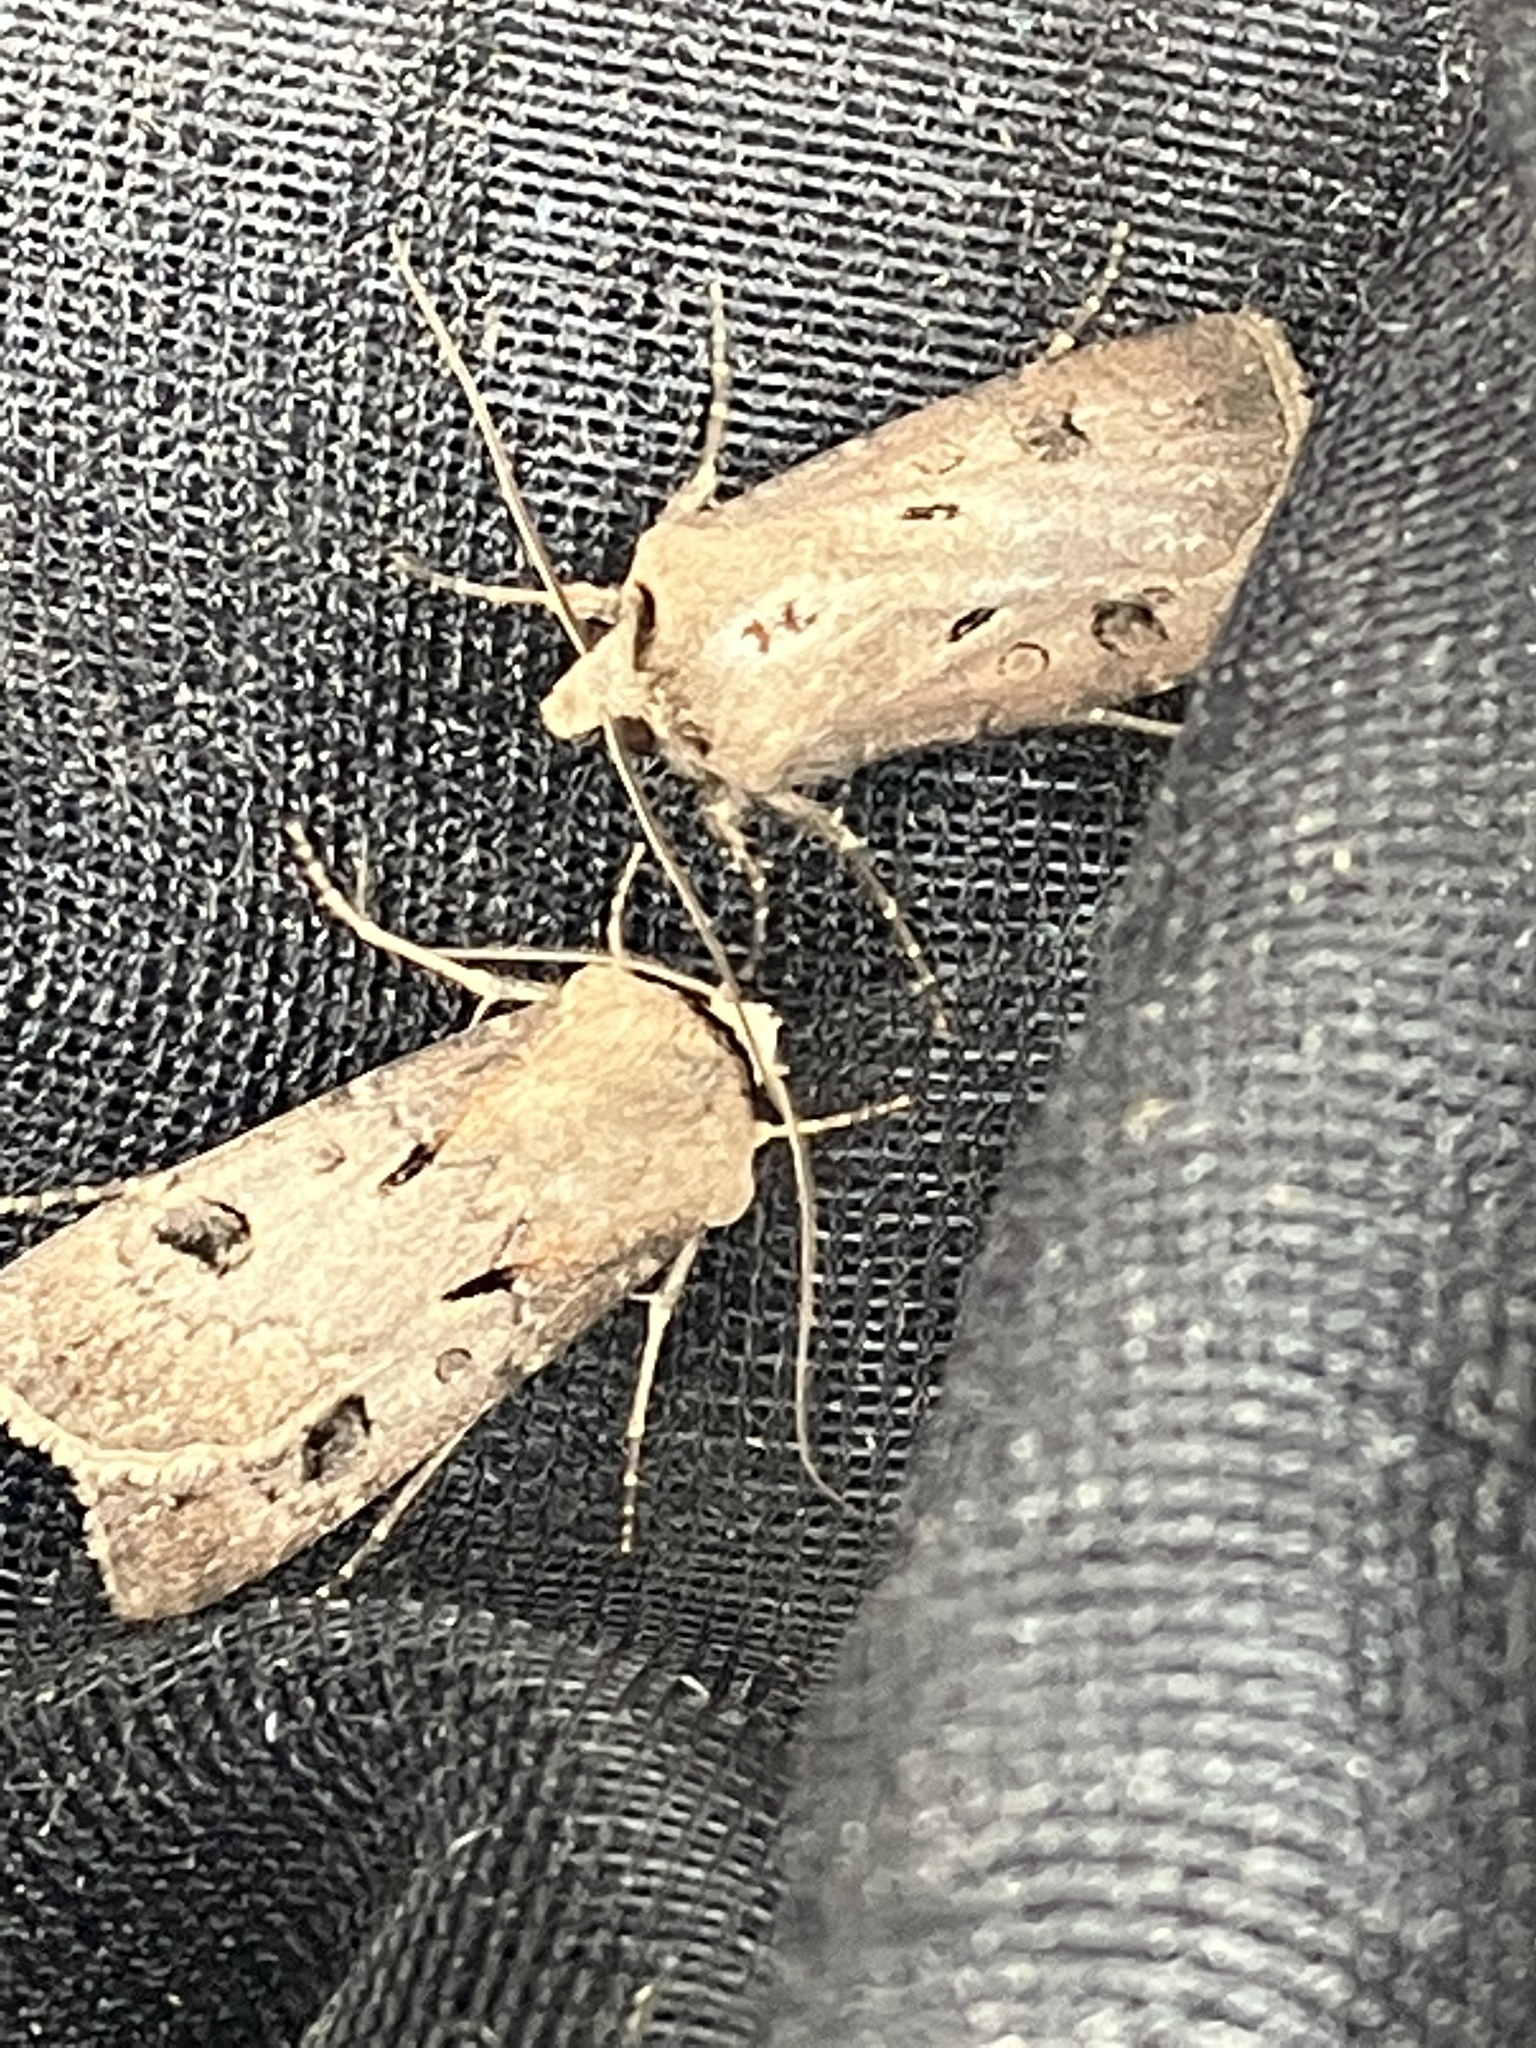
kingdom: Animalia
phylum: Arthropoda
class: Insecta
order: Lepidoptera
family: Noctuidae
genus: Agrotis
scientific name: Agrotis exclamationis
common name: Heart and dart
